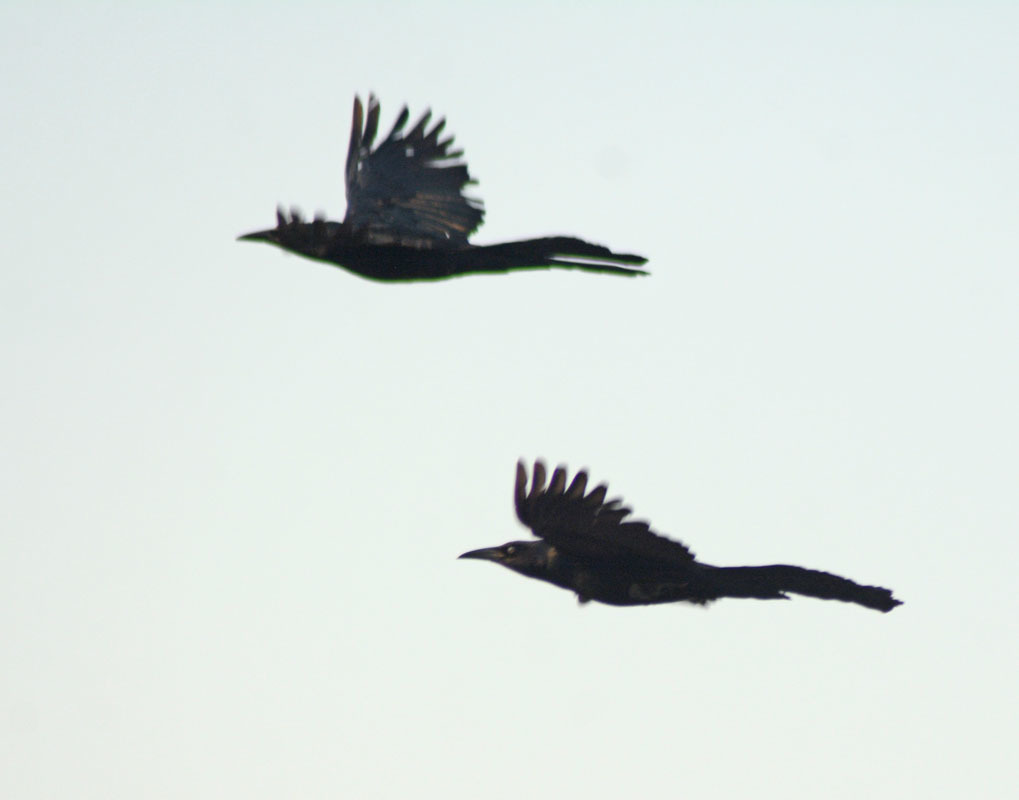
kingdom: Animalia
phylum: Chordata
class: Aves
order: Passeriformes
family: Icteridae
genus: Quiscalus
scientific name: Quiscalus mexicanus
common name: Great-tailed grackle
